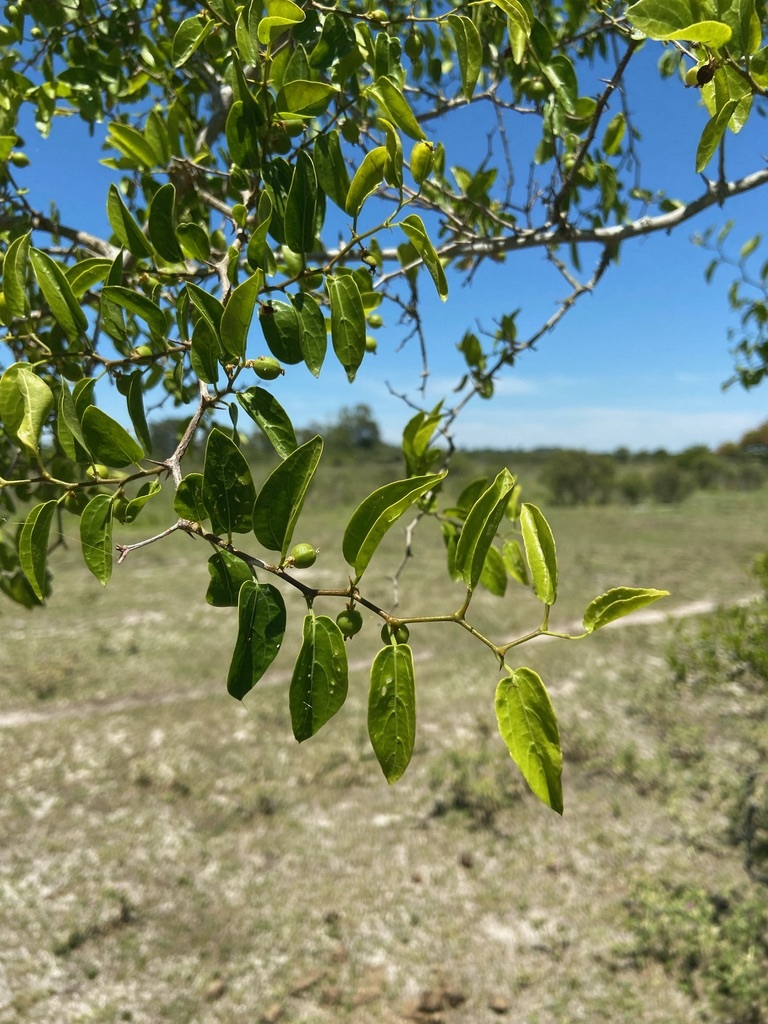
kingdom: Plantae
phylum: Tracheophyta
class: Magnoliopsida
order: Rosales
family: Cannabaceae
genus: Celtis
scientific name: Celtis tala
